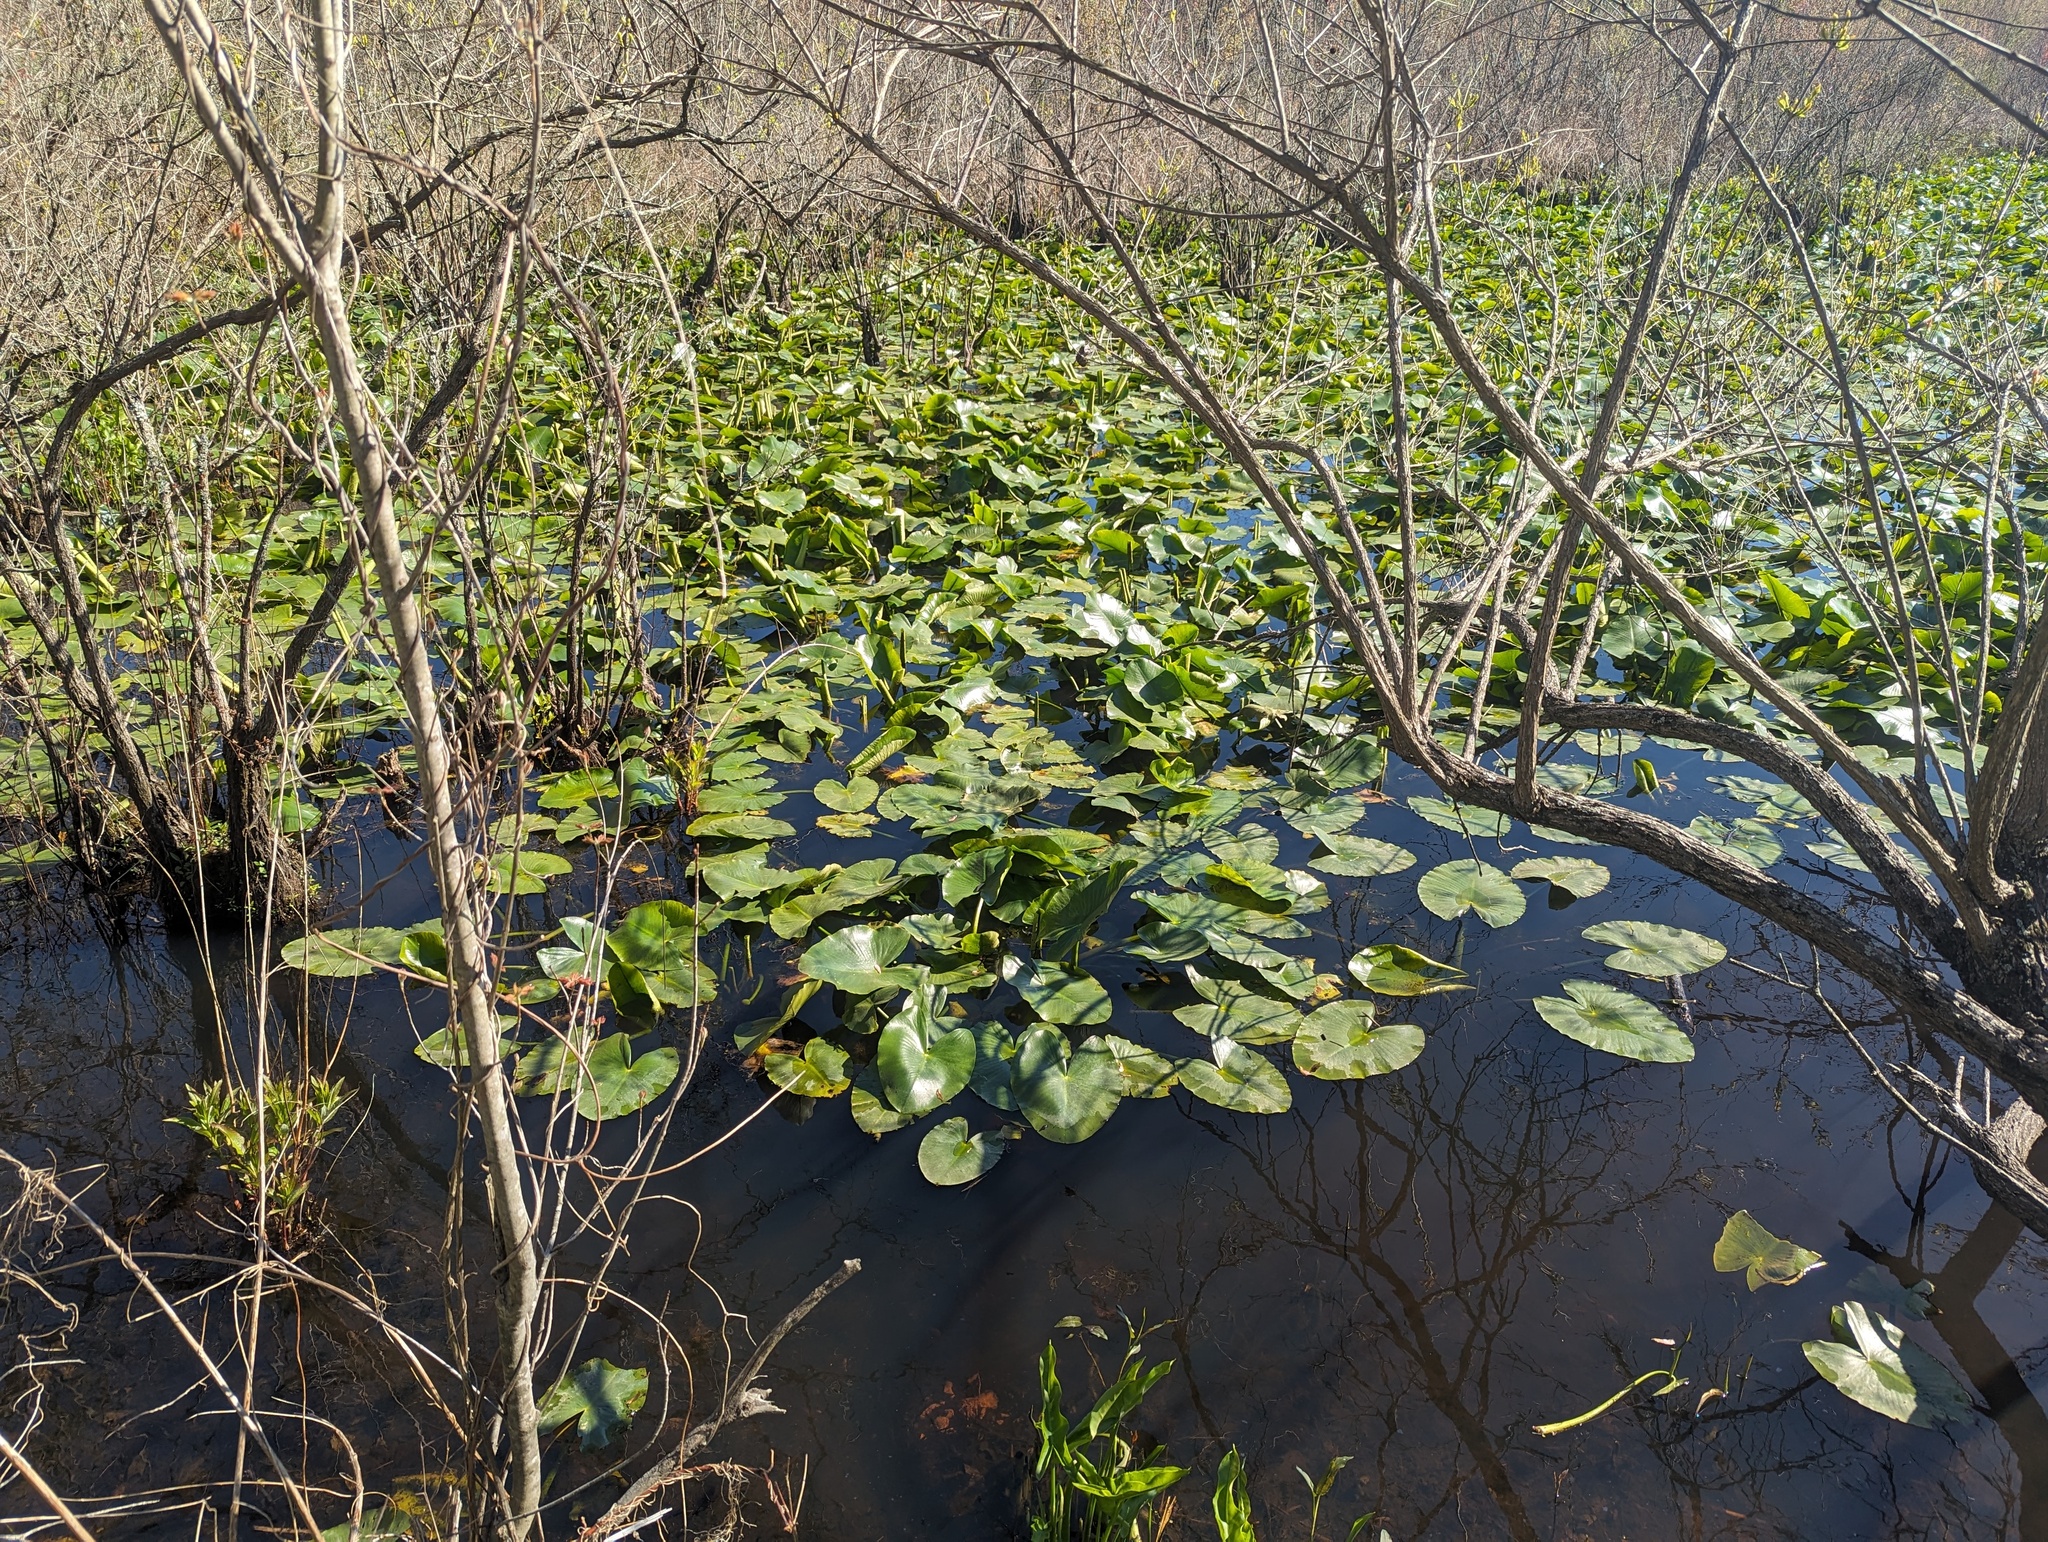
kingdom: Plantae
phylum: Tracheophyta
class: Magnoliopsida
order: Nymphaeales
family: Nymphaeaceae
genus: Nuphar
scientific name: Nuphar advena
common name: Spatter-dock
